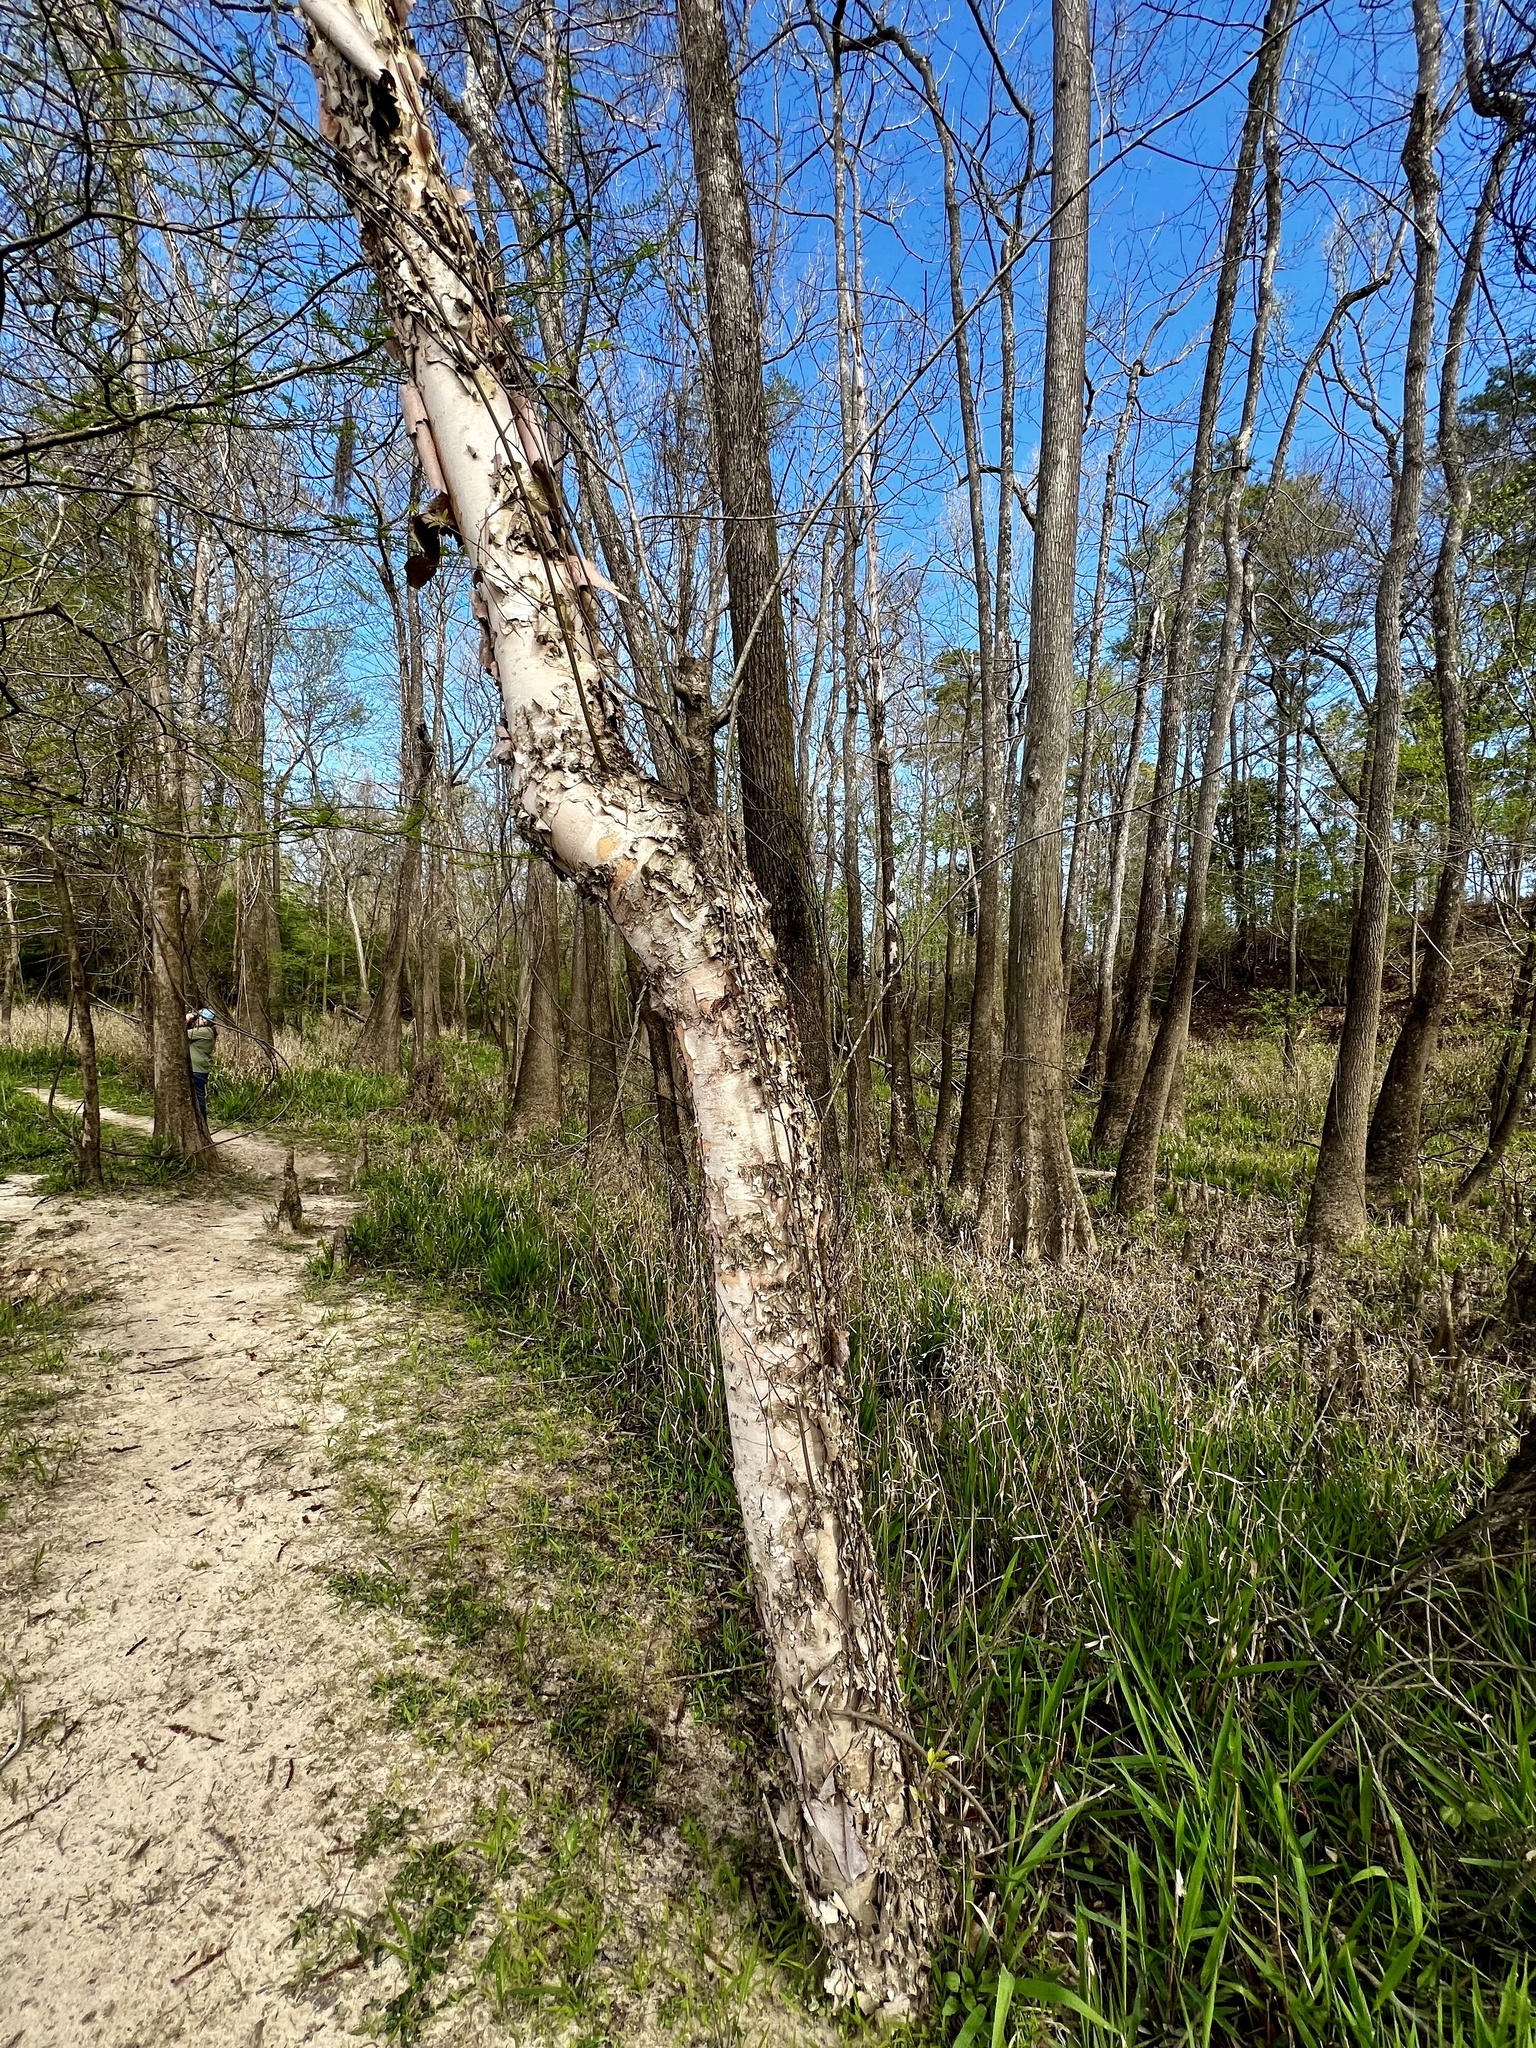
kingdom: Plantae
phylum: Tracheophyta
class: Magnoliopsida
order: Fagales
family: Betulaceae
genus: Betula
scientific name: Betula nigra
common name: Black birch
